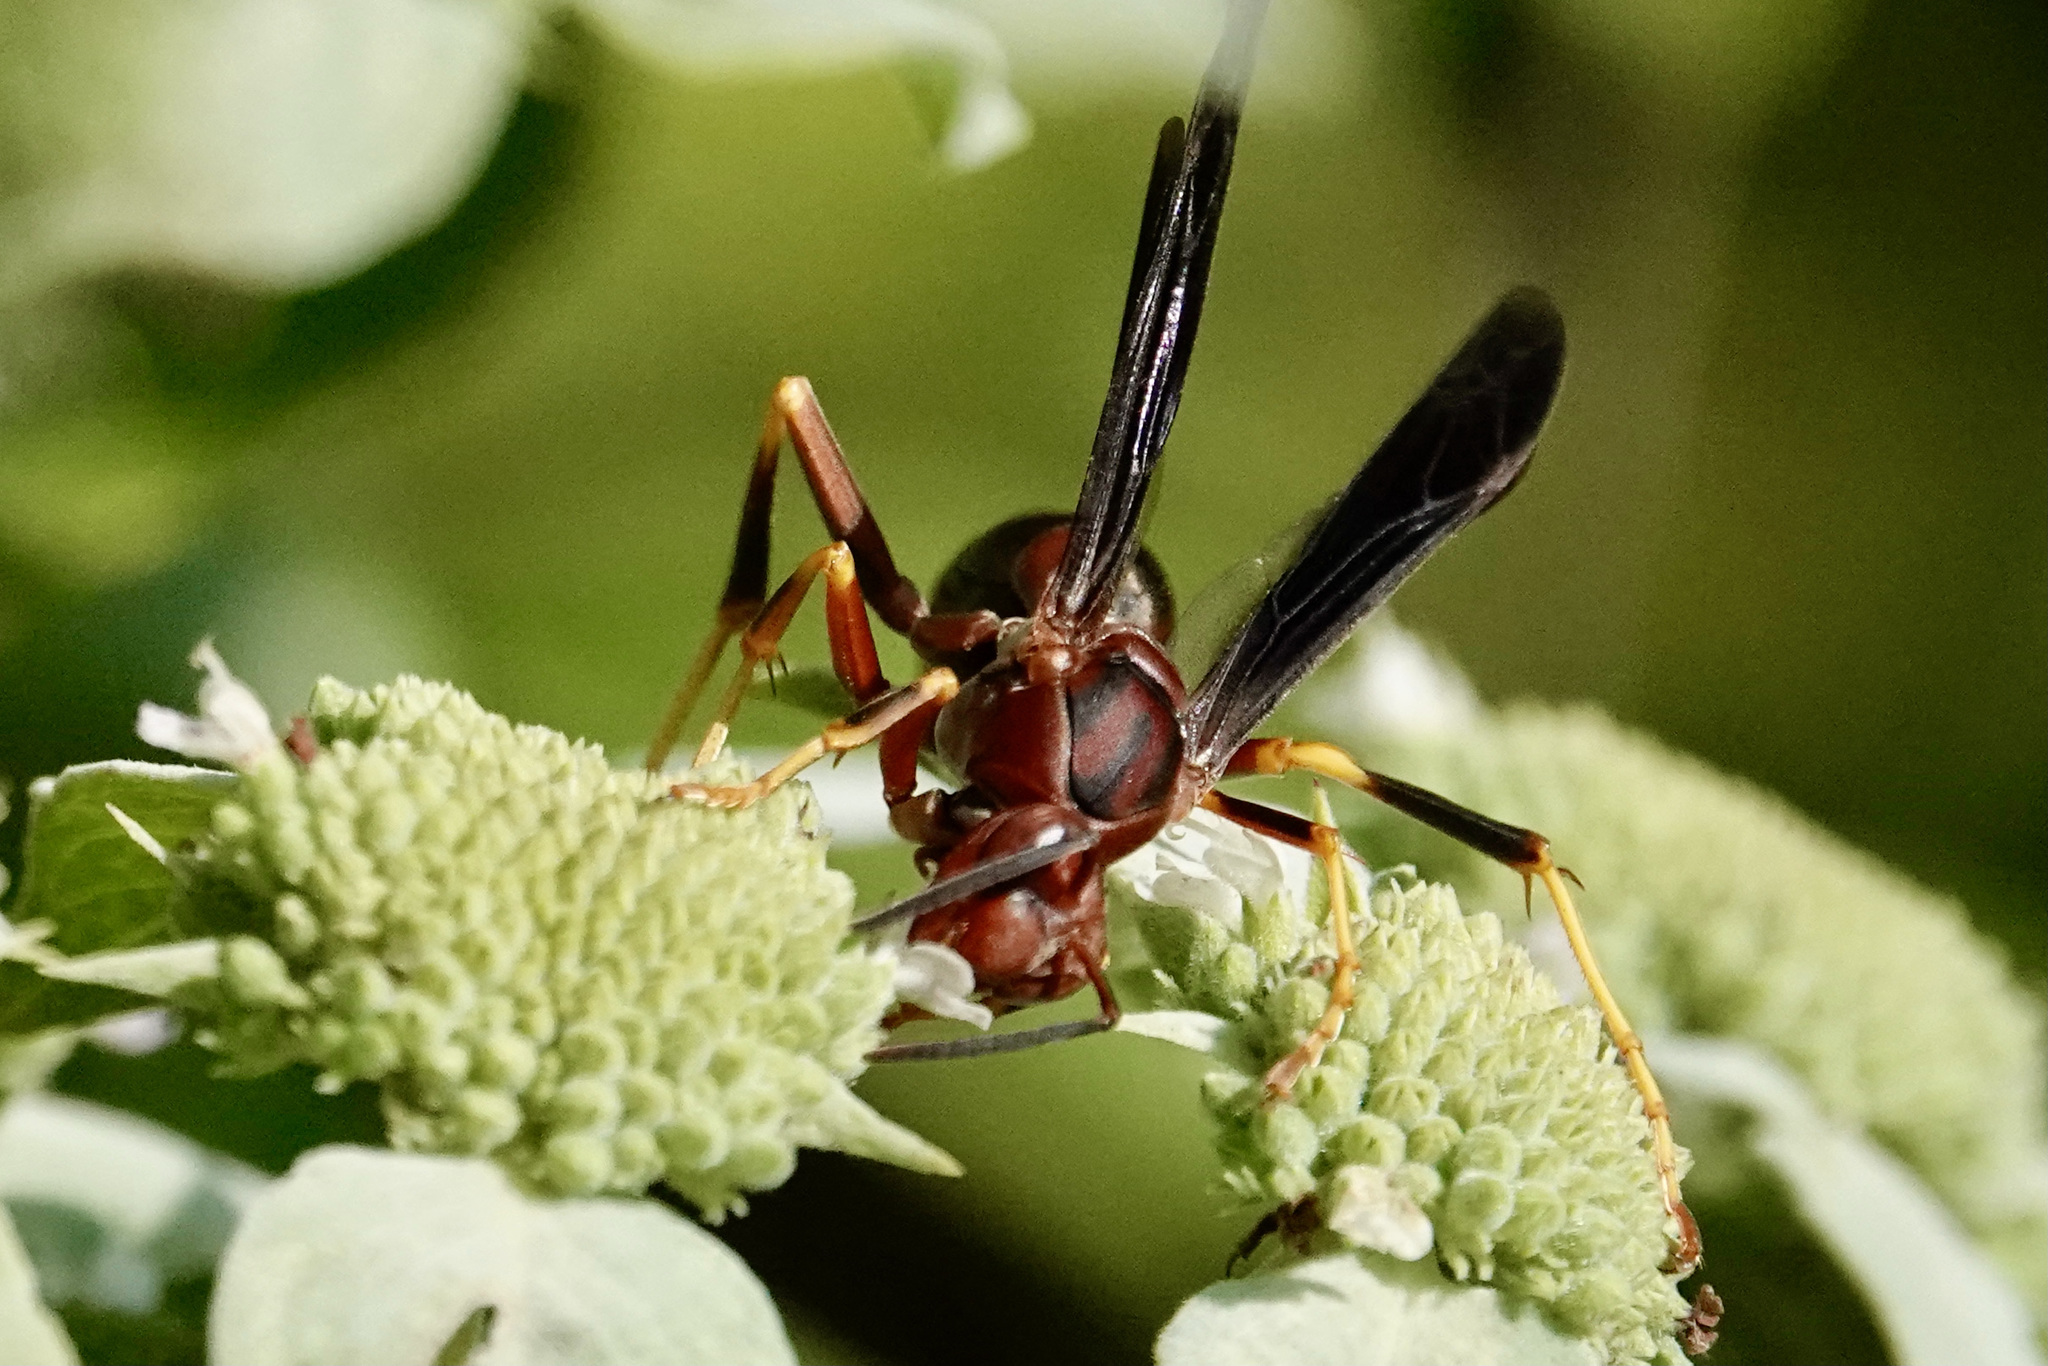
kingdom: Animalia
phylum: Arthropoda
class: Insecta
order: Hymenoptera
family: Eumenidae
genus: Polistes
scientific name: Polistes metricus
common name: Metric paper wasp
